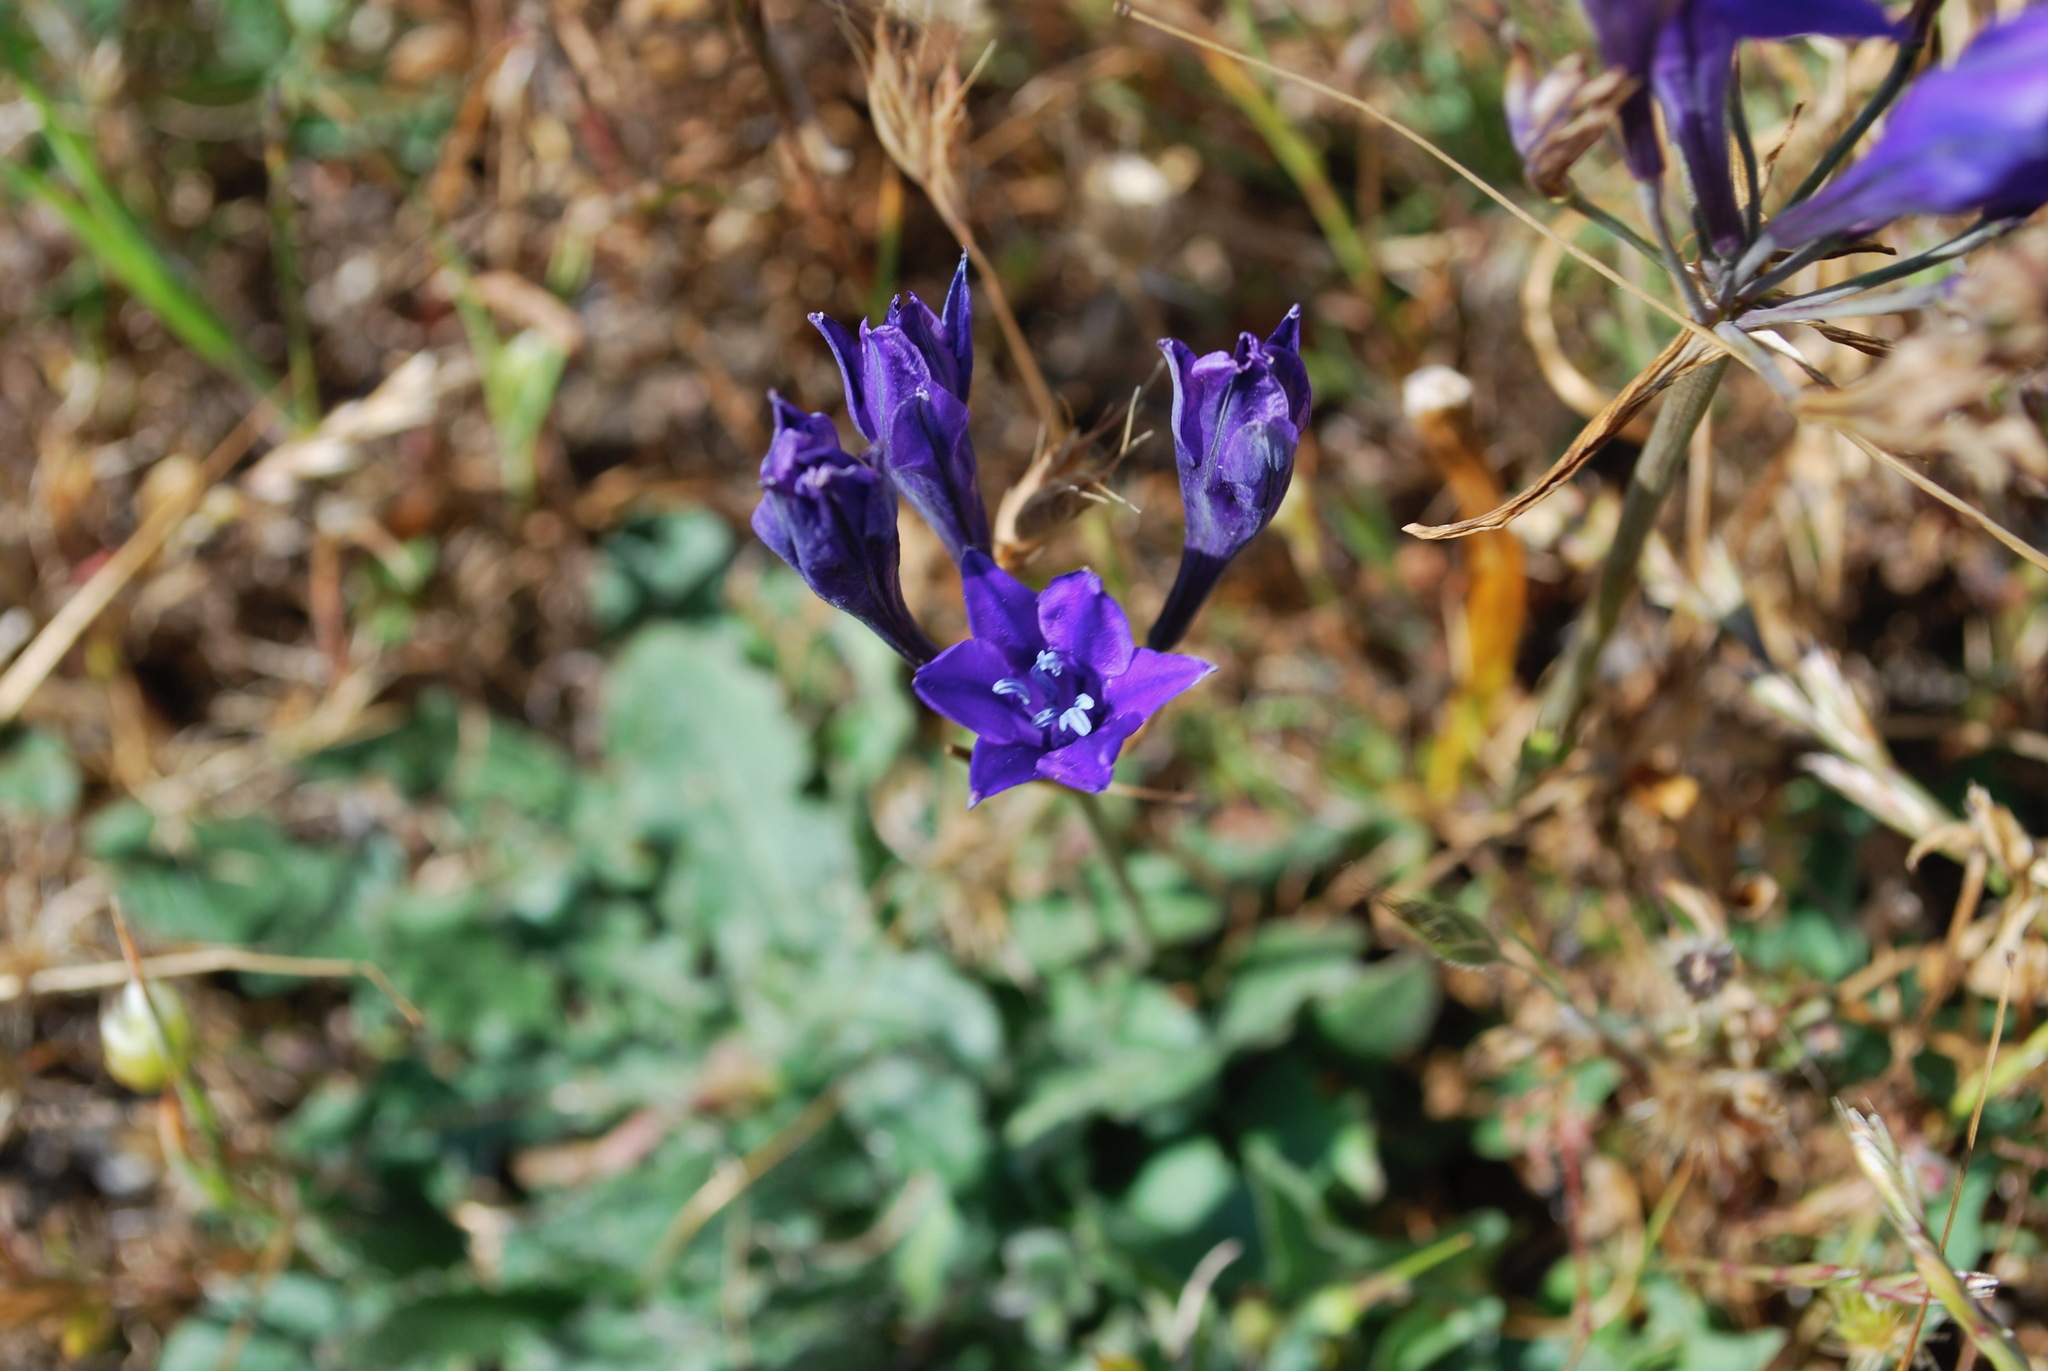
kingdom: Plantae
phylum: Tracheophyta
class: Liliopsida
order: Asparagales
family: Asparagaceae
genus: Triteleia
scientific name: Triteleia laxa
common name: Triplet-lily
